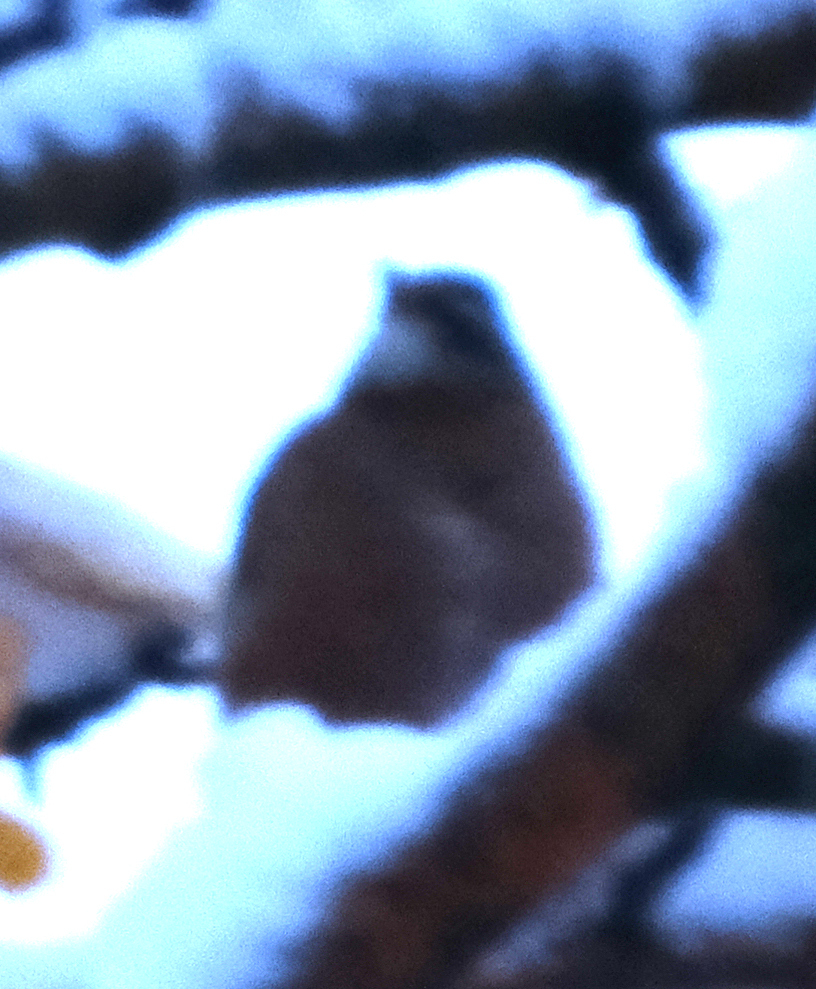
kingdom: Animalia
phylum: Chordata
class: Aves
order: Passeriformes
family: Turdidae
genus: Turdus
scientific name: Turdus migratorius
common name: American robin
